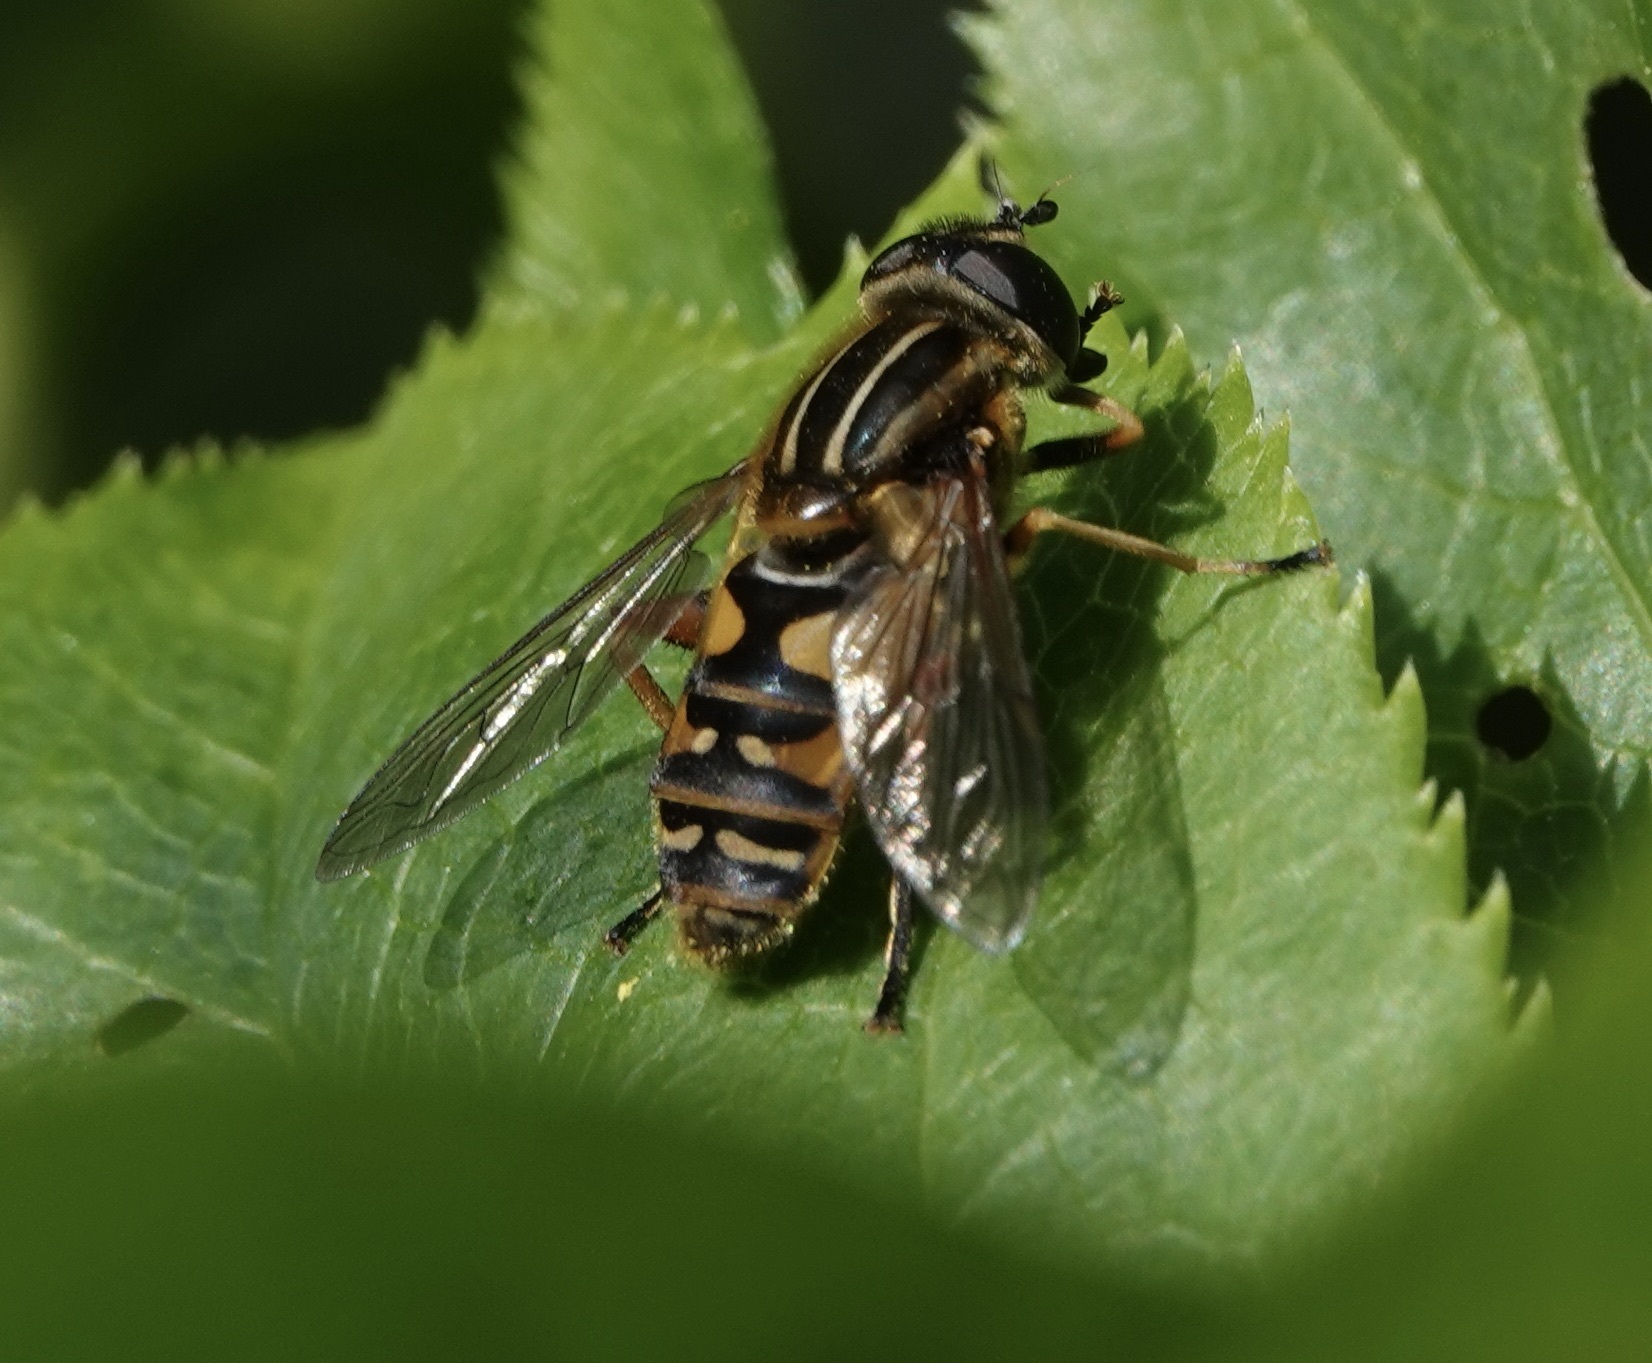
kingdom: Animalia
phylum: Arthropoda
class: Insecta
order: Diptera
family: Syrphidae
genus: Helophilus
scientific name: Helophilus pendulus
